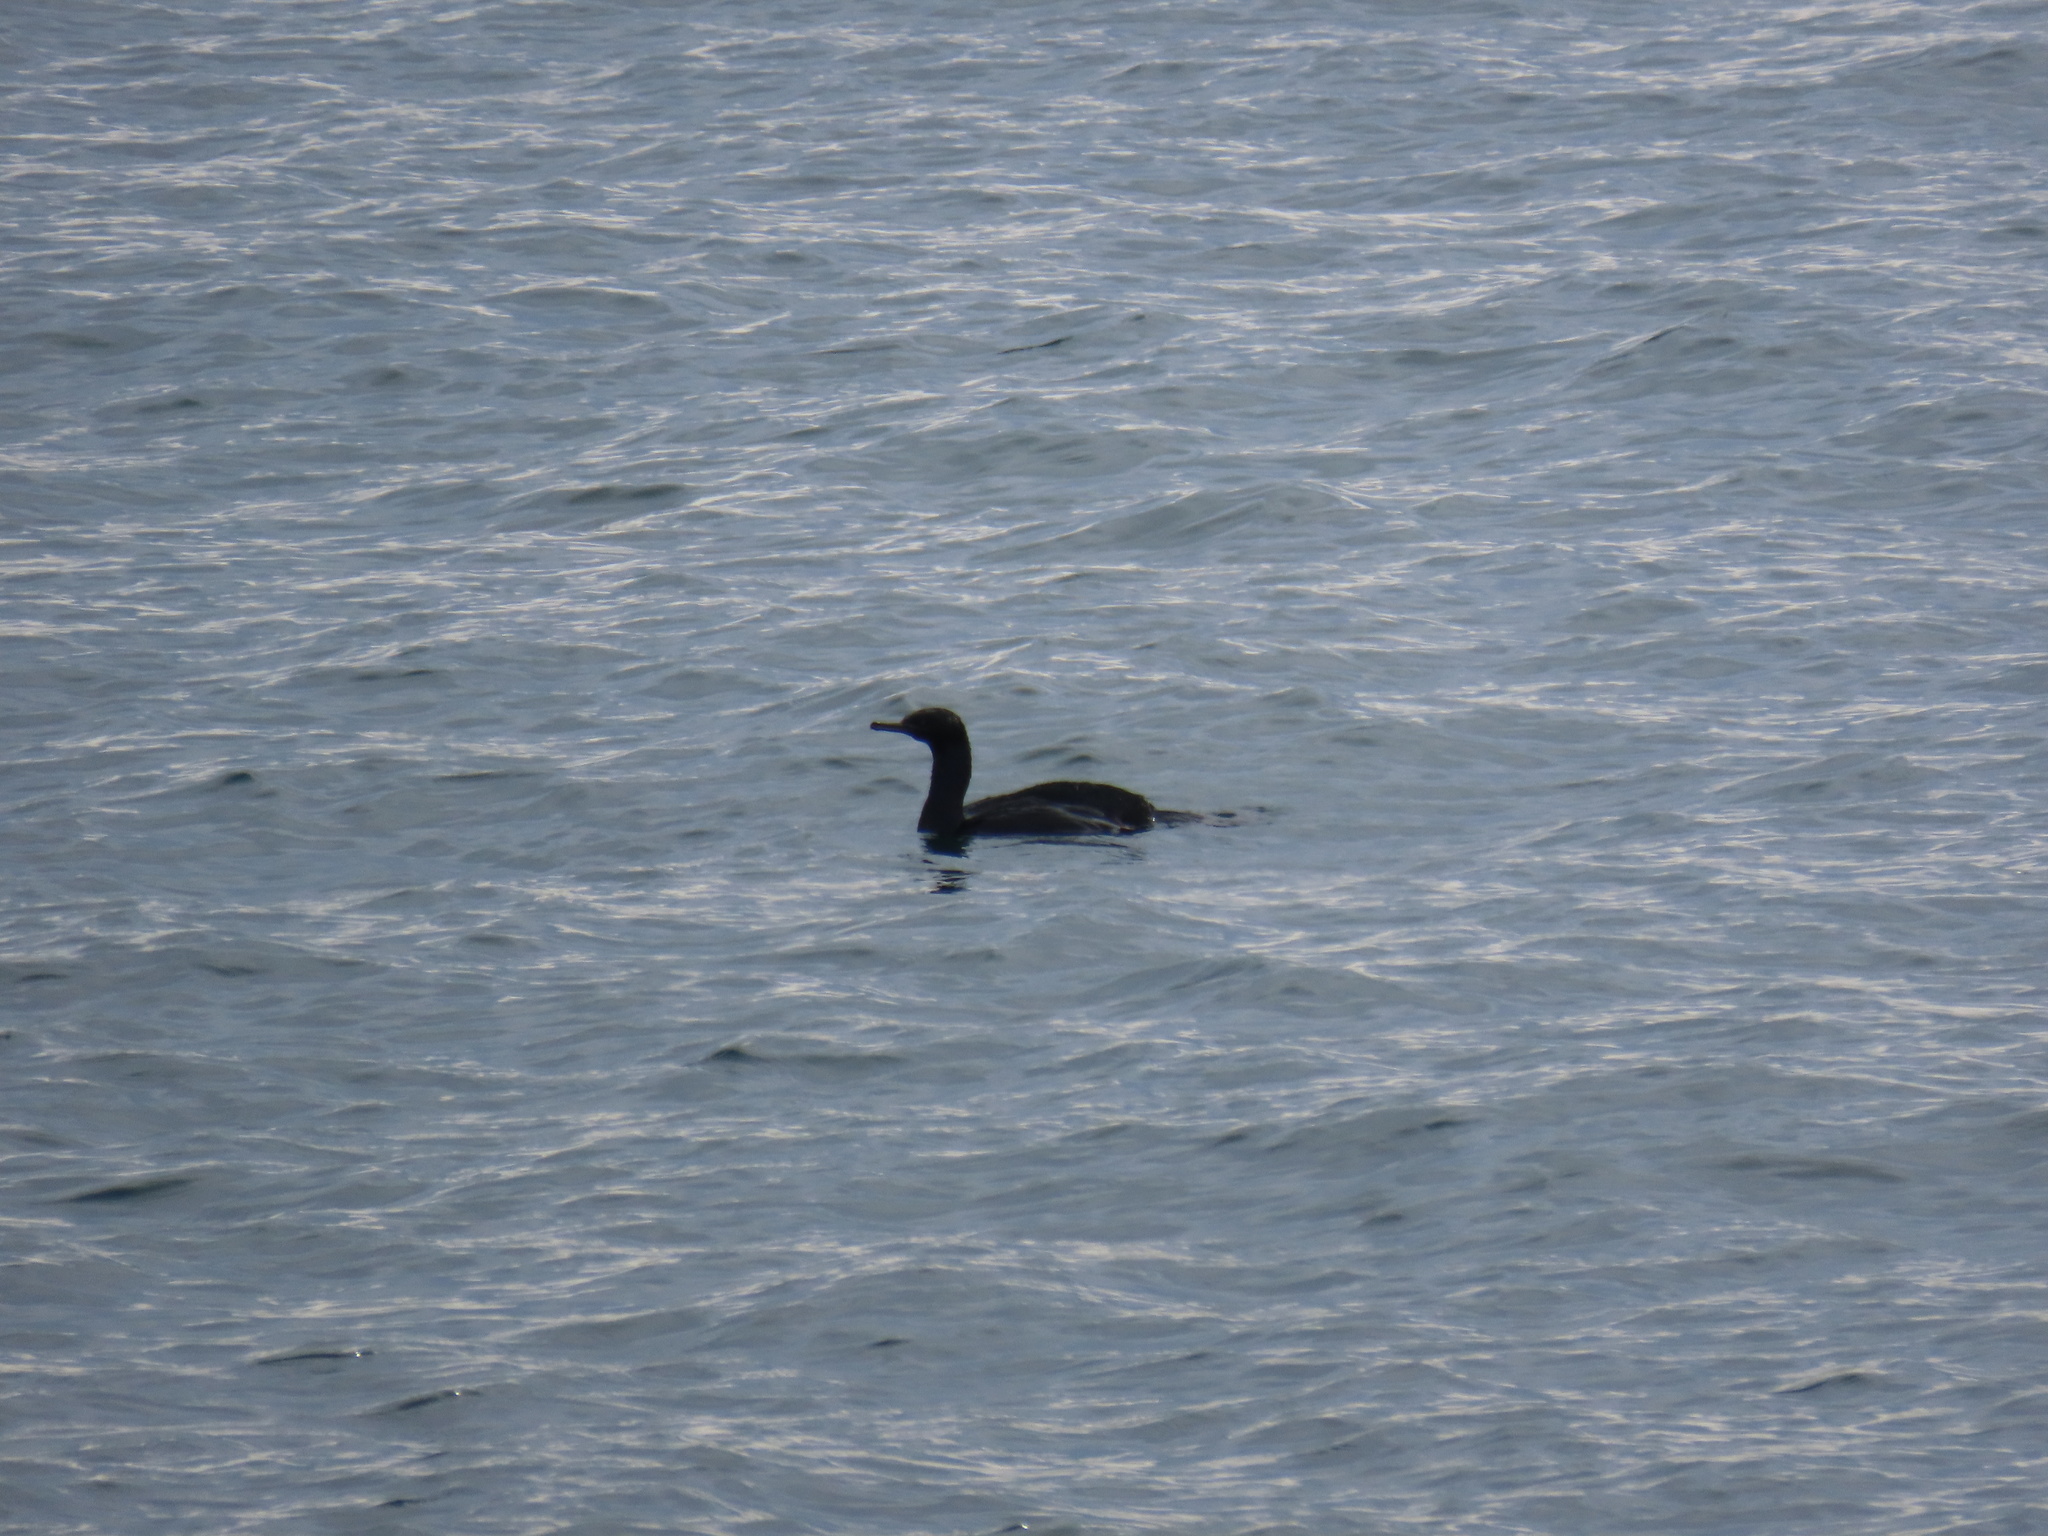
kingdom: Animalia
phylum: Chordata
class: Aves
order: Suliformes
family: Phalacrocoracidae
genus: Phalacrocorax
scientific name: Phalacrocorax pelagicus
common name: Pelagic cormorant
